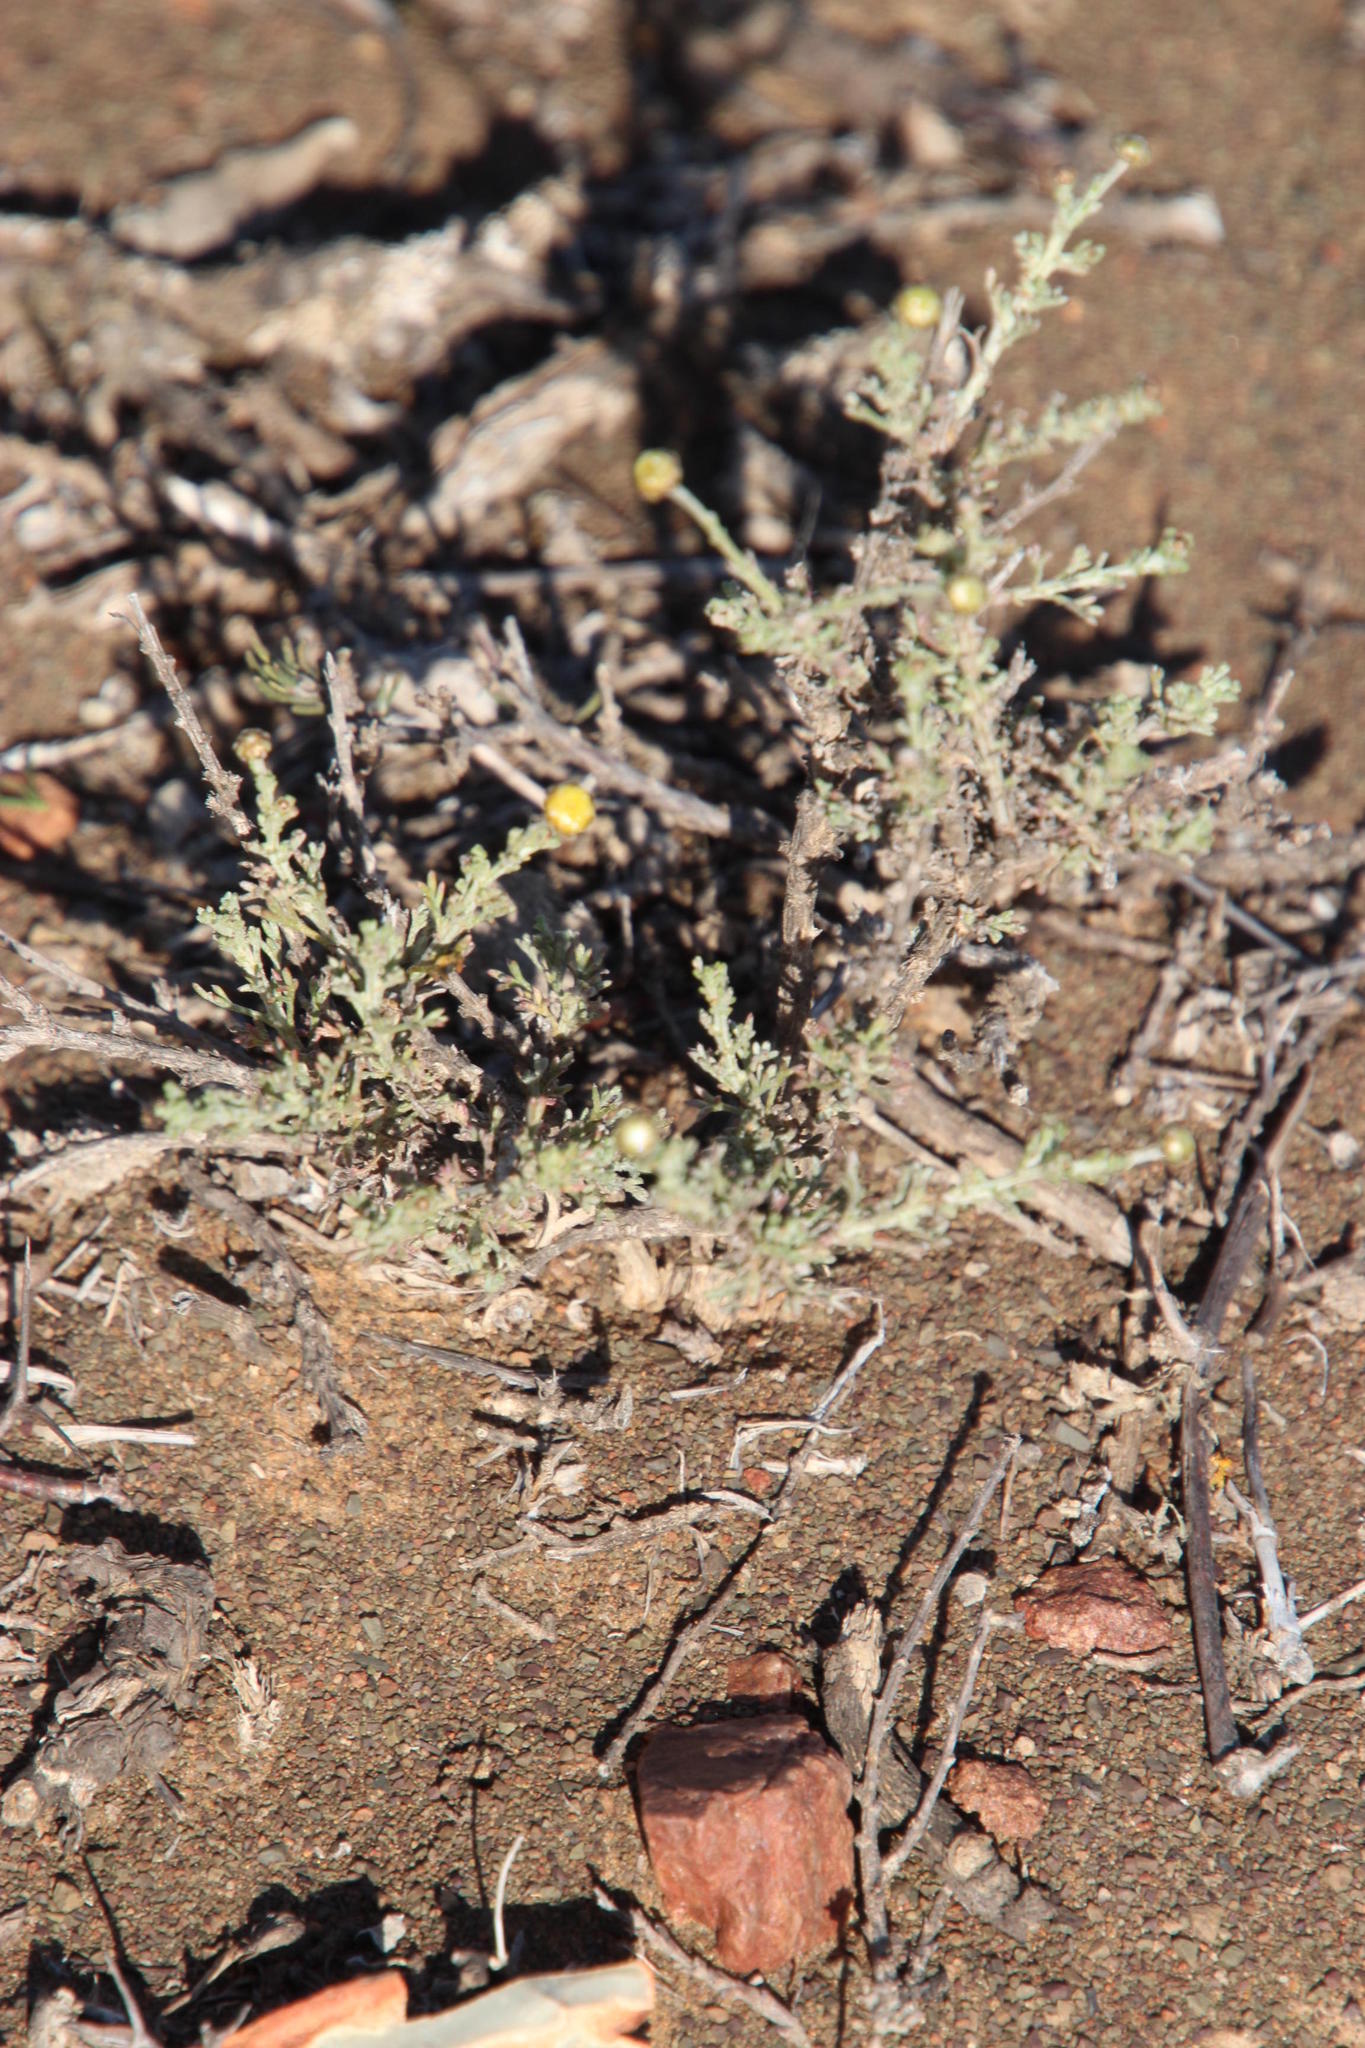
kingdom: Plantae
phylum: Tracheophyta
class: Magnoliopsida
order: Asterales
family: Asteraceae
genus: Pentzia
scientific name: Pentzia incana
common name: African sheepbush
